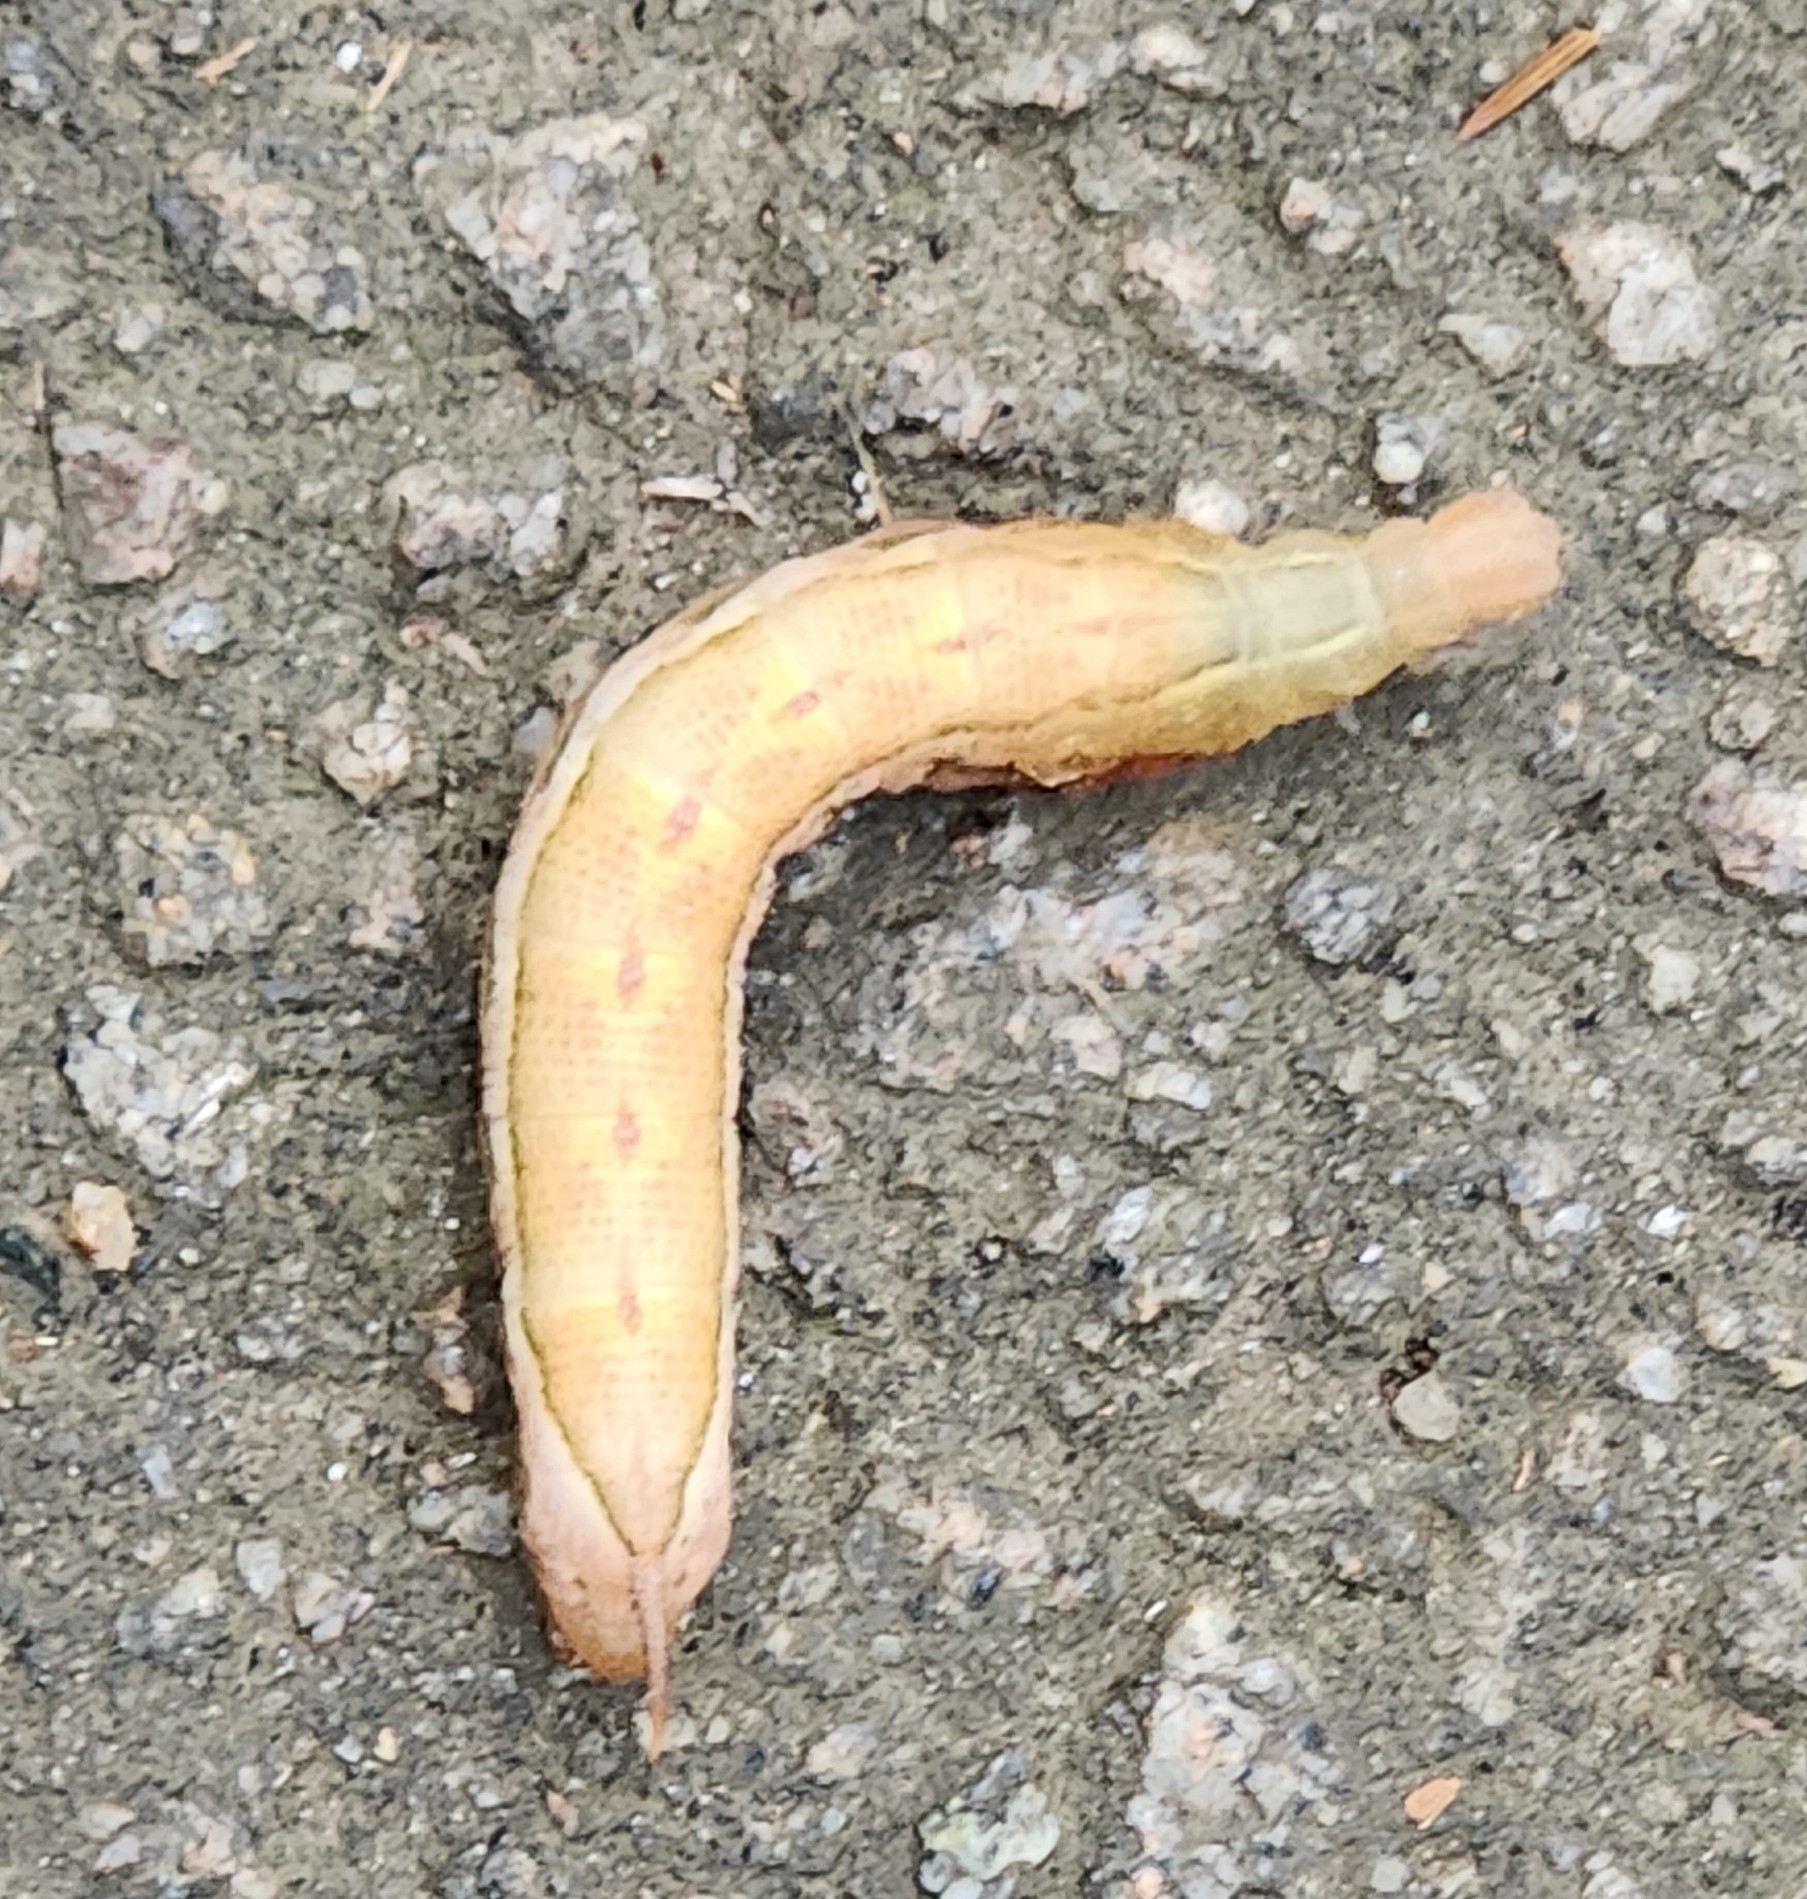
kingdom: Animalia
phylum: Arthropoda
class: Insecta
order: Lepidoptera
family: Sphingidae
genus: Darapsa
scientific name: Darapsa myron
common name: Hog sphinx
